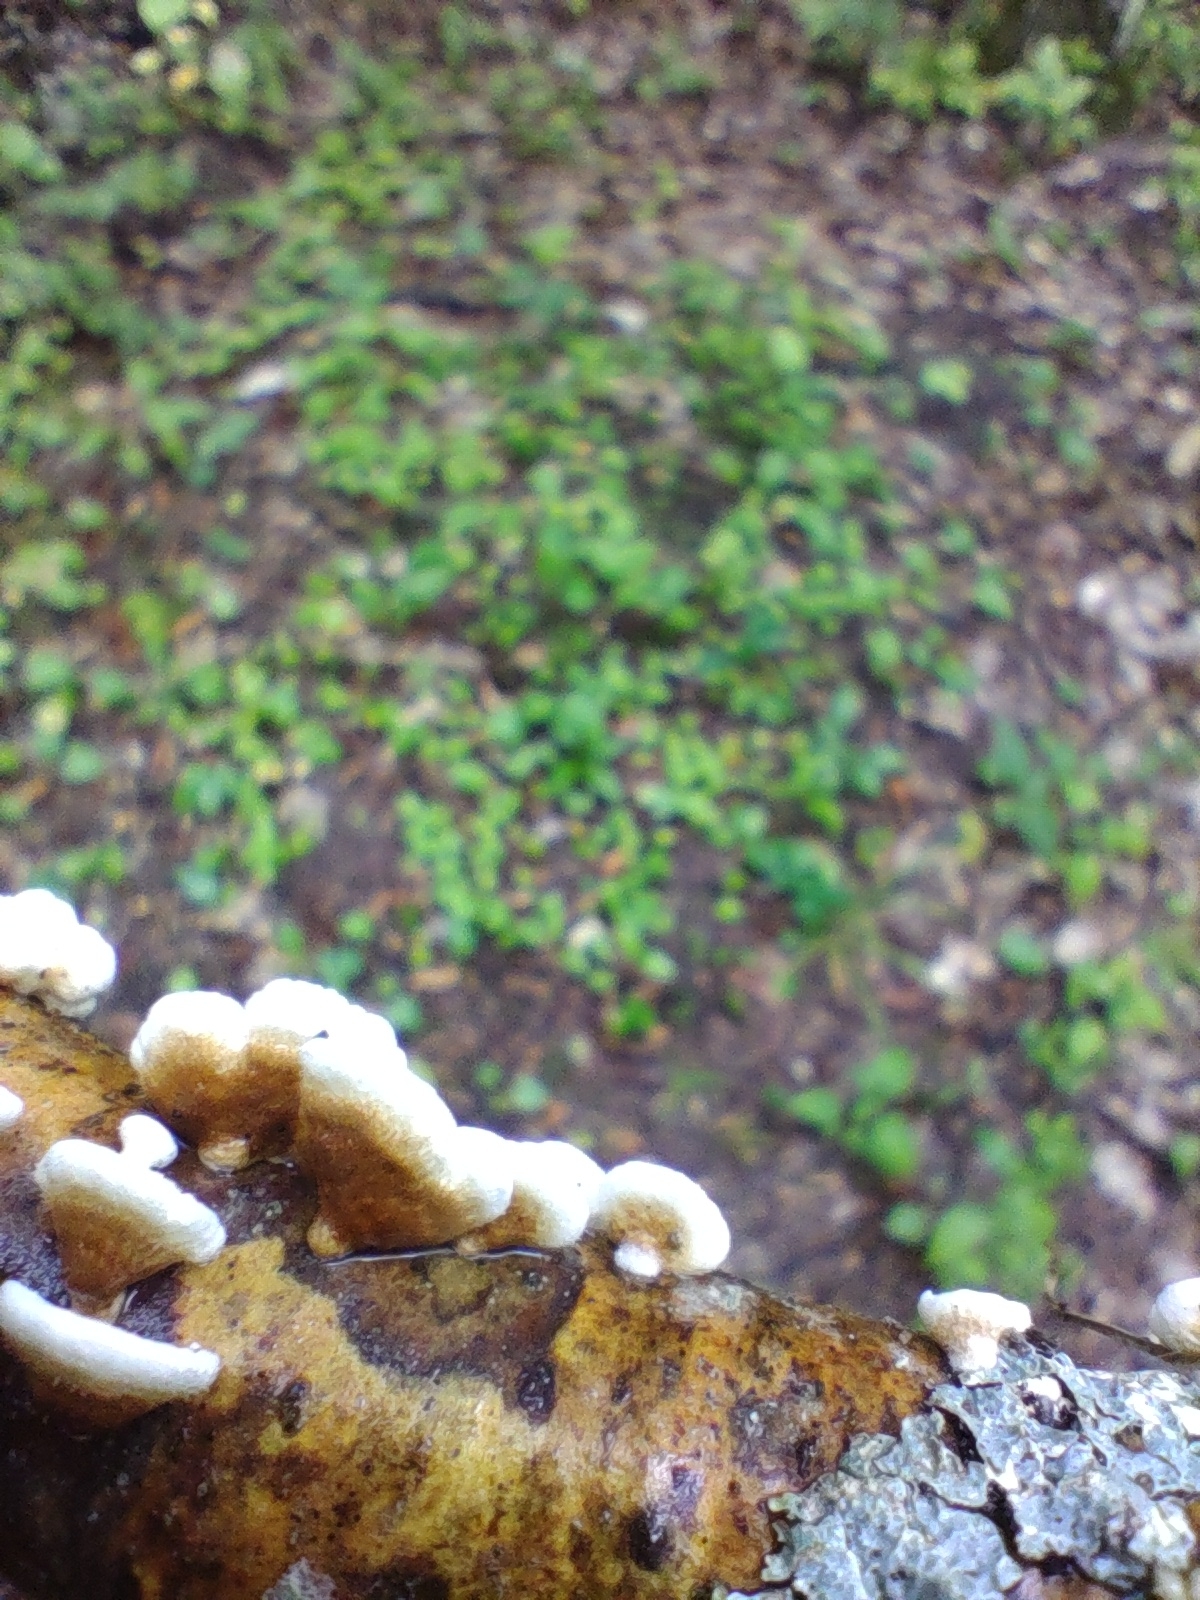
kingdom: Fungi
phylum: Basidiomycota
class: Agaricomycetes
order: Amylocorticiales
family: Amylocorticiaceae
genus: Plicaturopsis
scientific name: Plicaturopsis crispa
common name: Crimped gill
